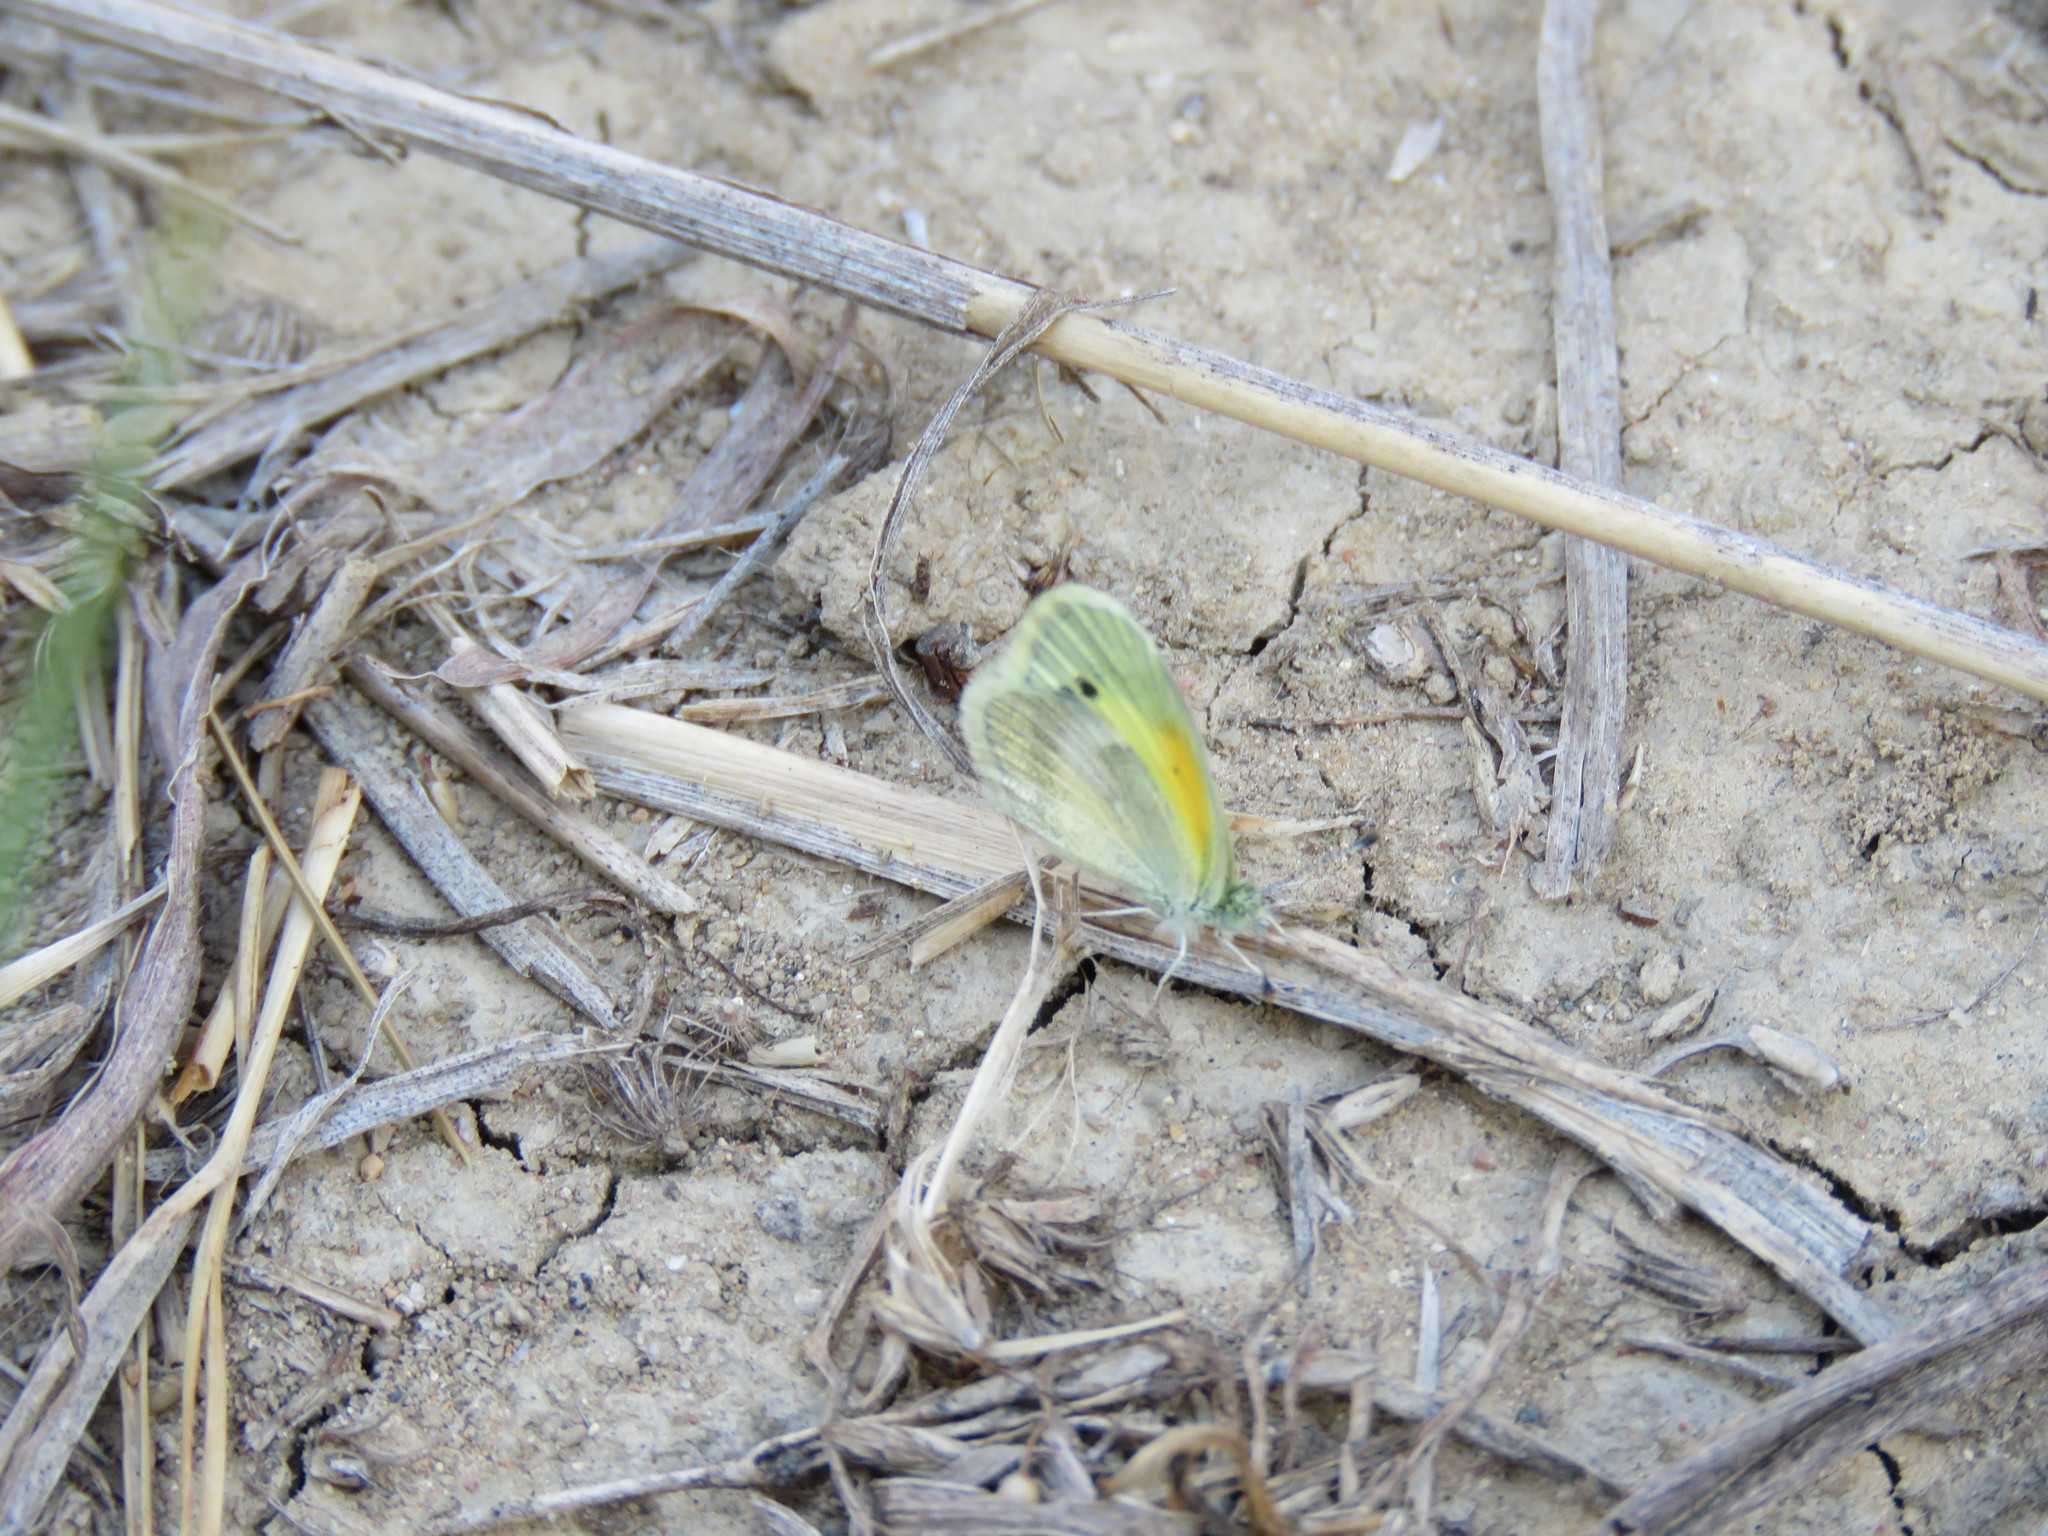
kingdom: Animalia
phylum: Arthropoda
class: Insecta
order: Lepidoptera
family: Pieridae
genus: Nathalis
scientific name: Nathalis iole
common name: Dainty sulphur
